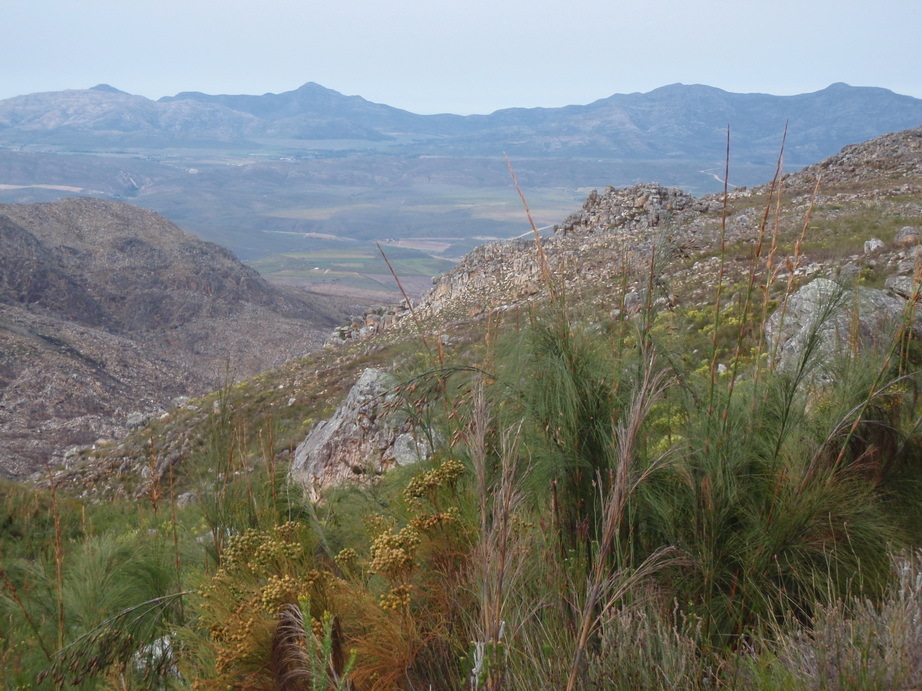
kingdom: Plantae
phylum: Tracheophyta
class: Liliopsida
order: Poales
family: Restionaceae
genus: Cannomois
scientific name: Cannomois grandis
